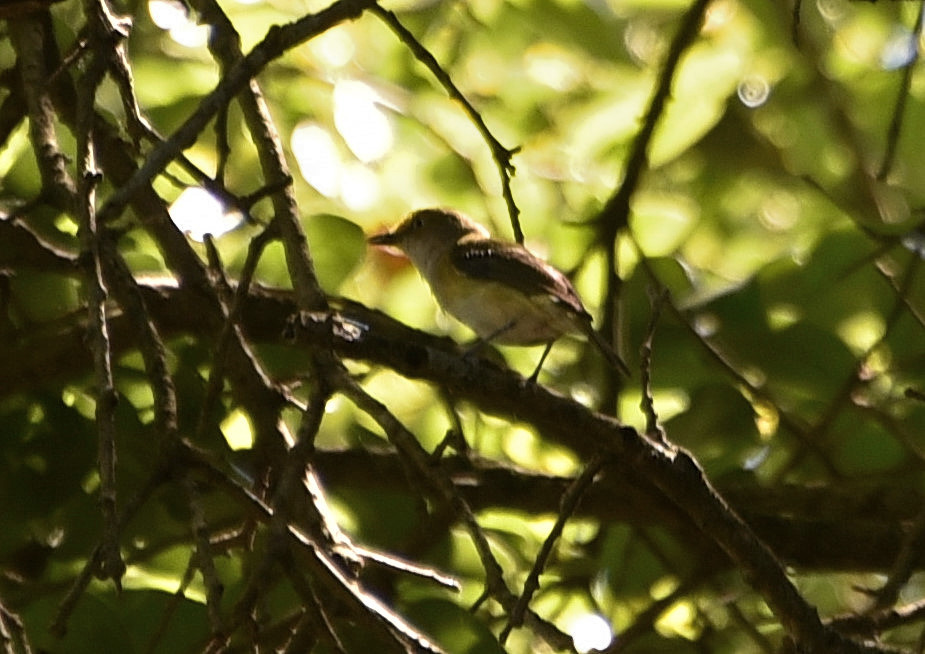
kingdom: Animalia
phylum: Chordata
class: Aves
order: Passeriformes
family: Vireonidae
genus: Vireo
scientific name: Vireo griseus
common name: White-eyed vireo
